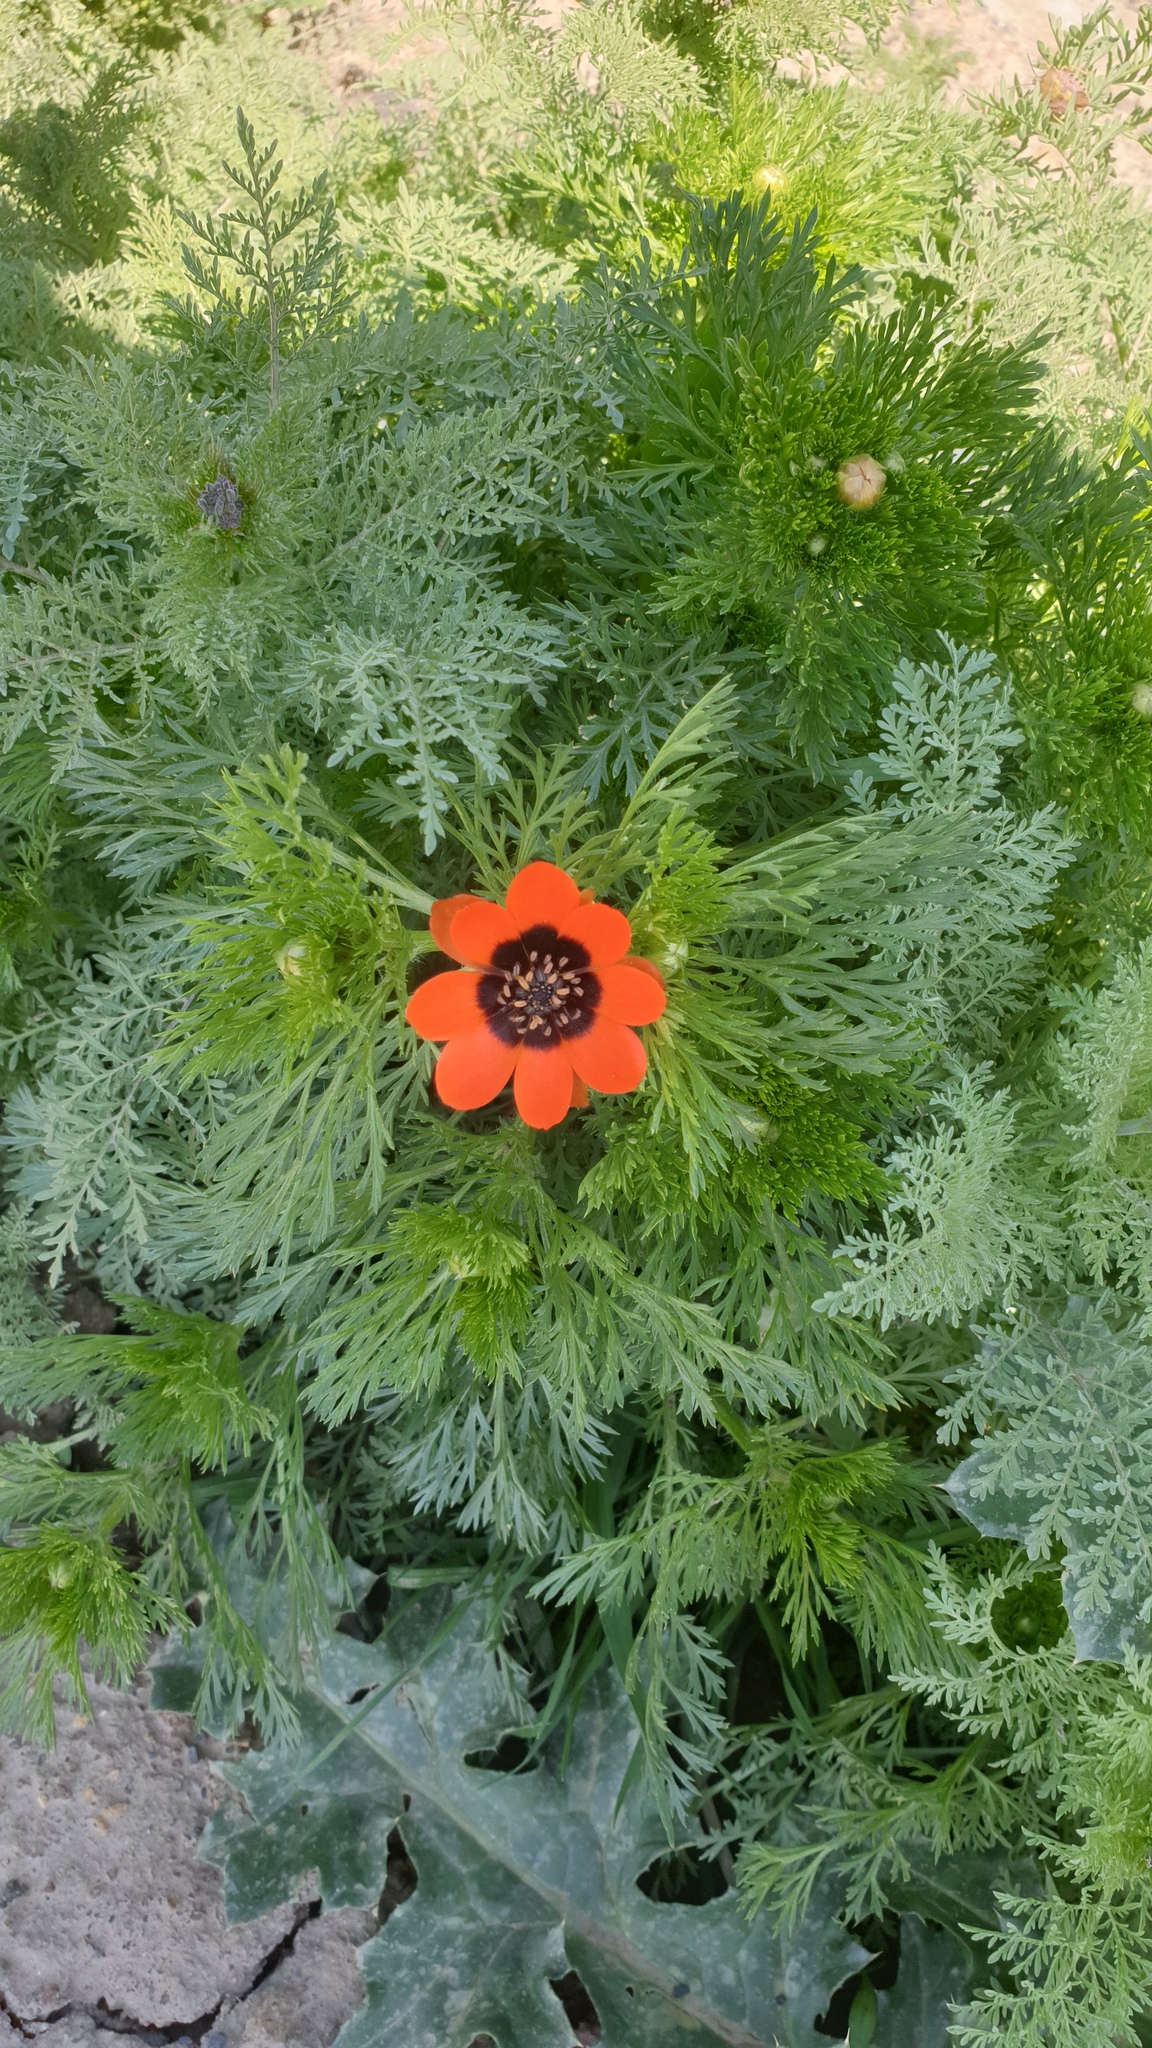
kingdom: Plantae
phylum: Tracheophyta
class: Magnoliopsida
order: Ranunculales
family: Ranunculaceae
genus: Adonis
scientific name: Adonis aestivalis
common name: Summer pheasant's-eye
